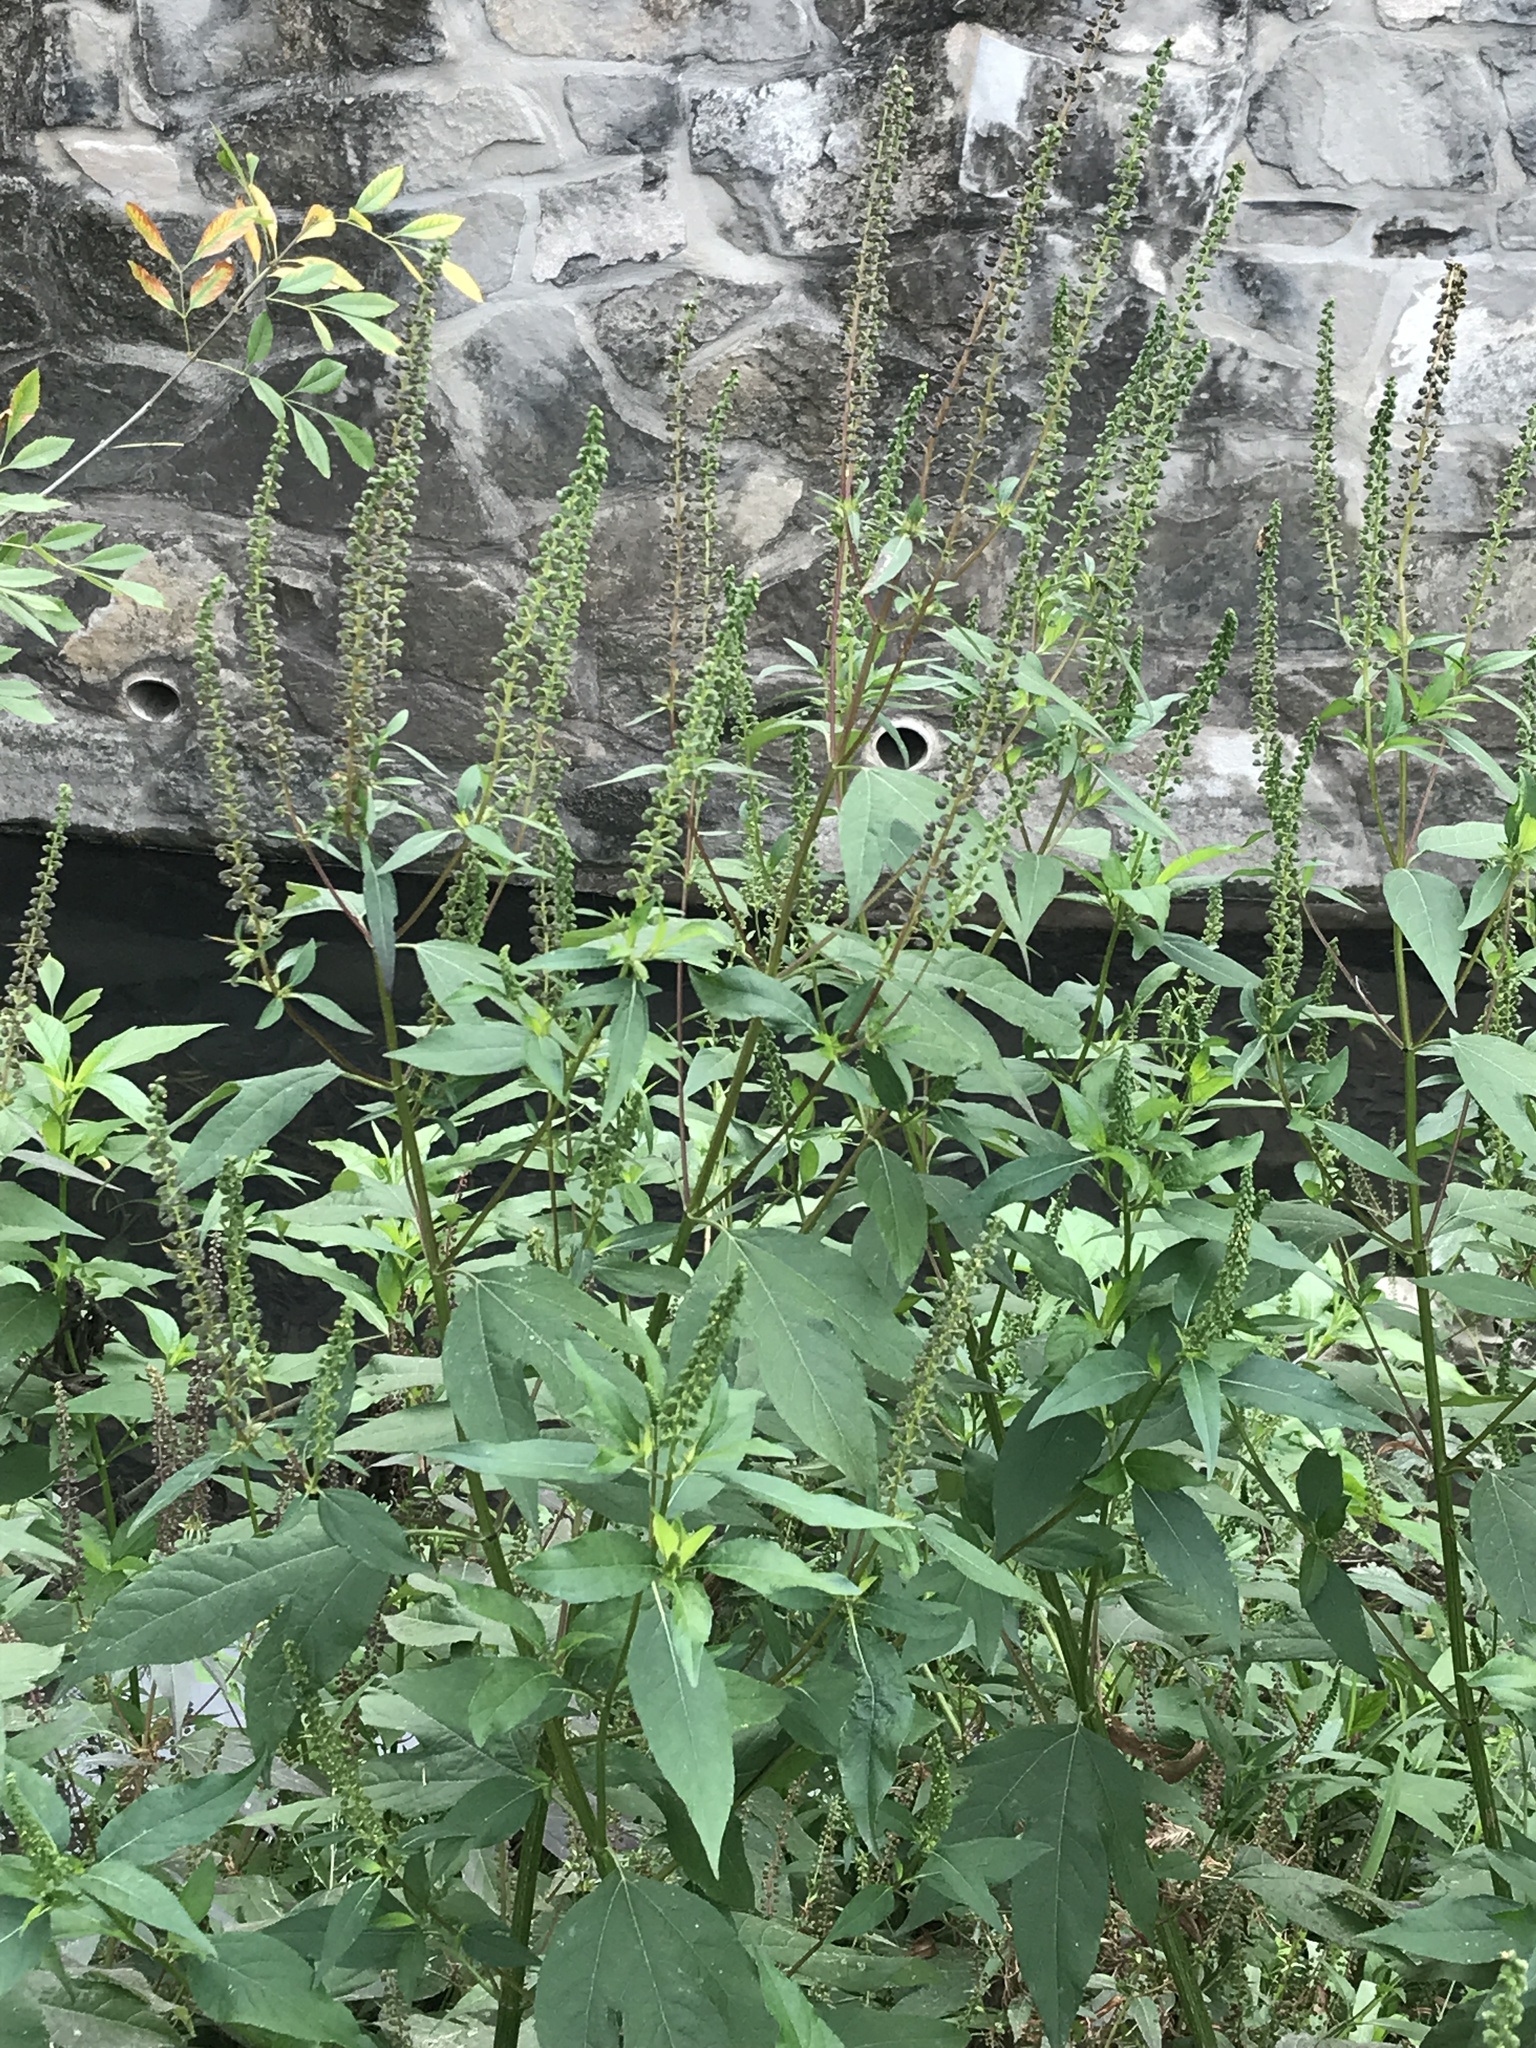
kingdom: Plantae
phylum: Tracheophyta
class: Magnoliopsida
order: Asterales
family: Asteraceae
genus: Ambrosia
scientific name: Ambrosia trifida
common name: Giant ragweed
